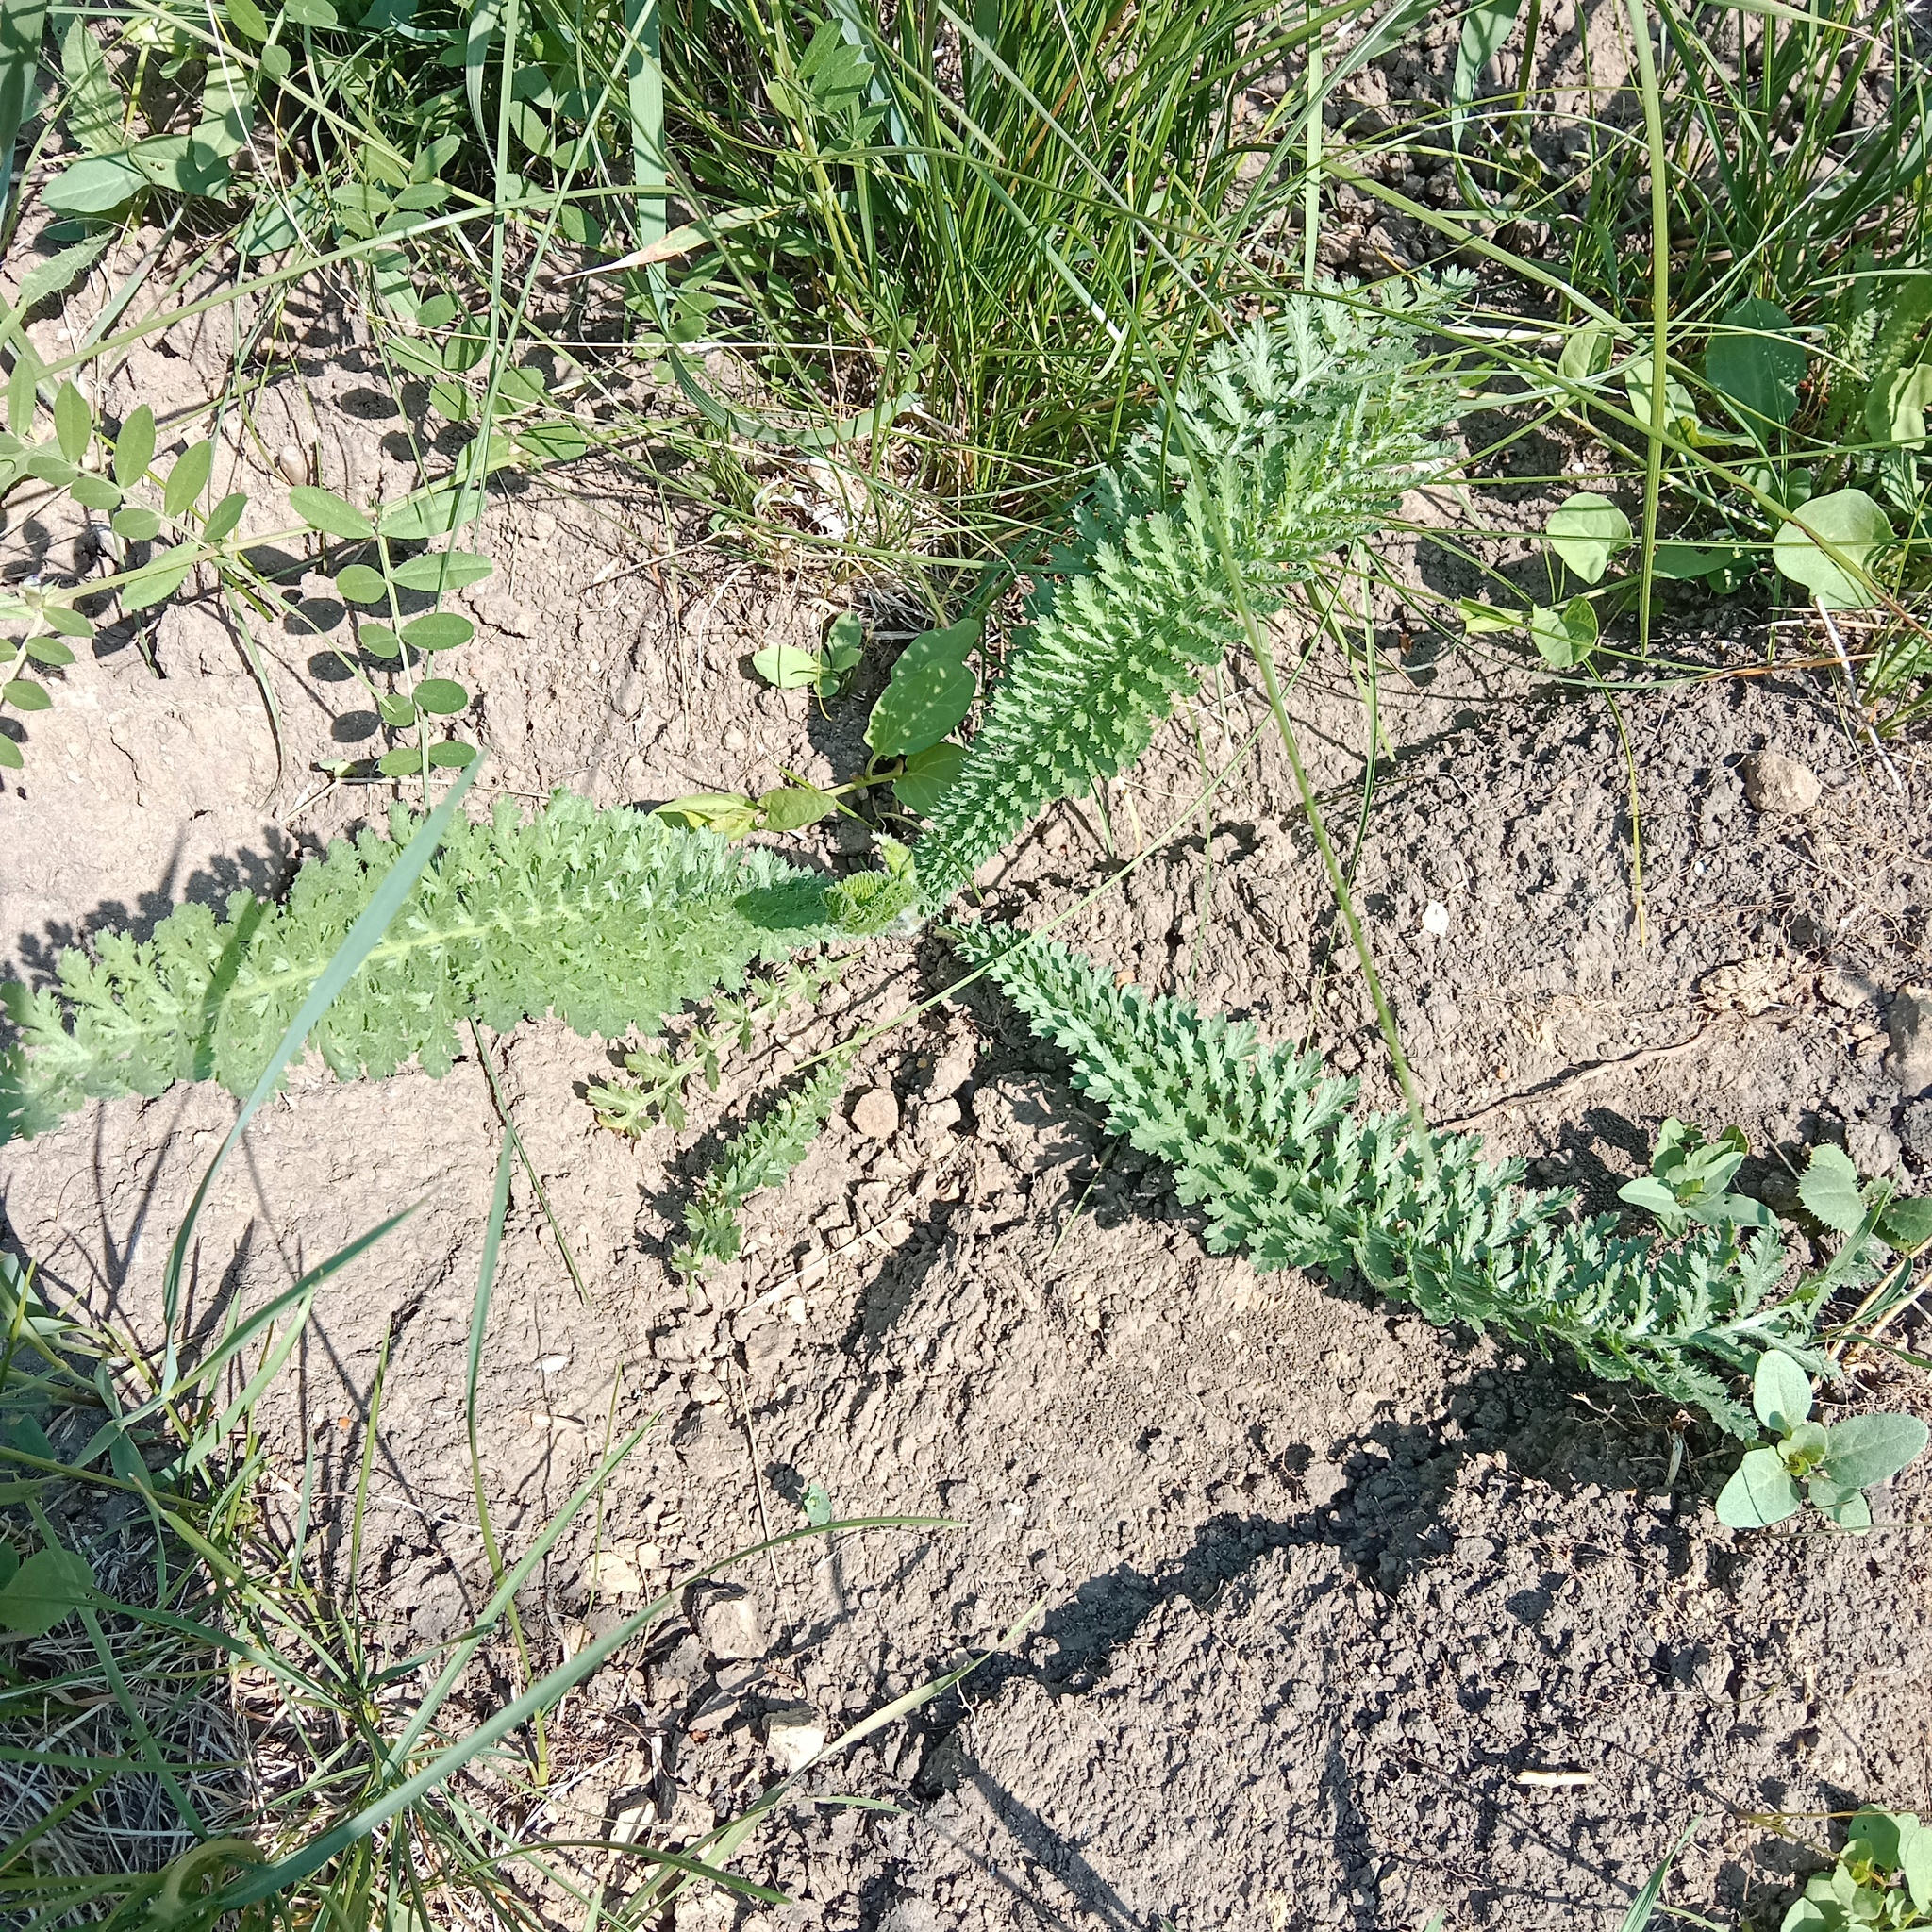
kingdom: Plantae
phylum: Tracheophyta
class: Magnoliopsida
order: Rosales
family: Rosaceae
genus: Filipendula
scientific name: Filipendula vulgaris
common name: Dropwort
